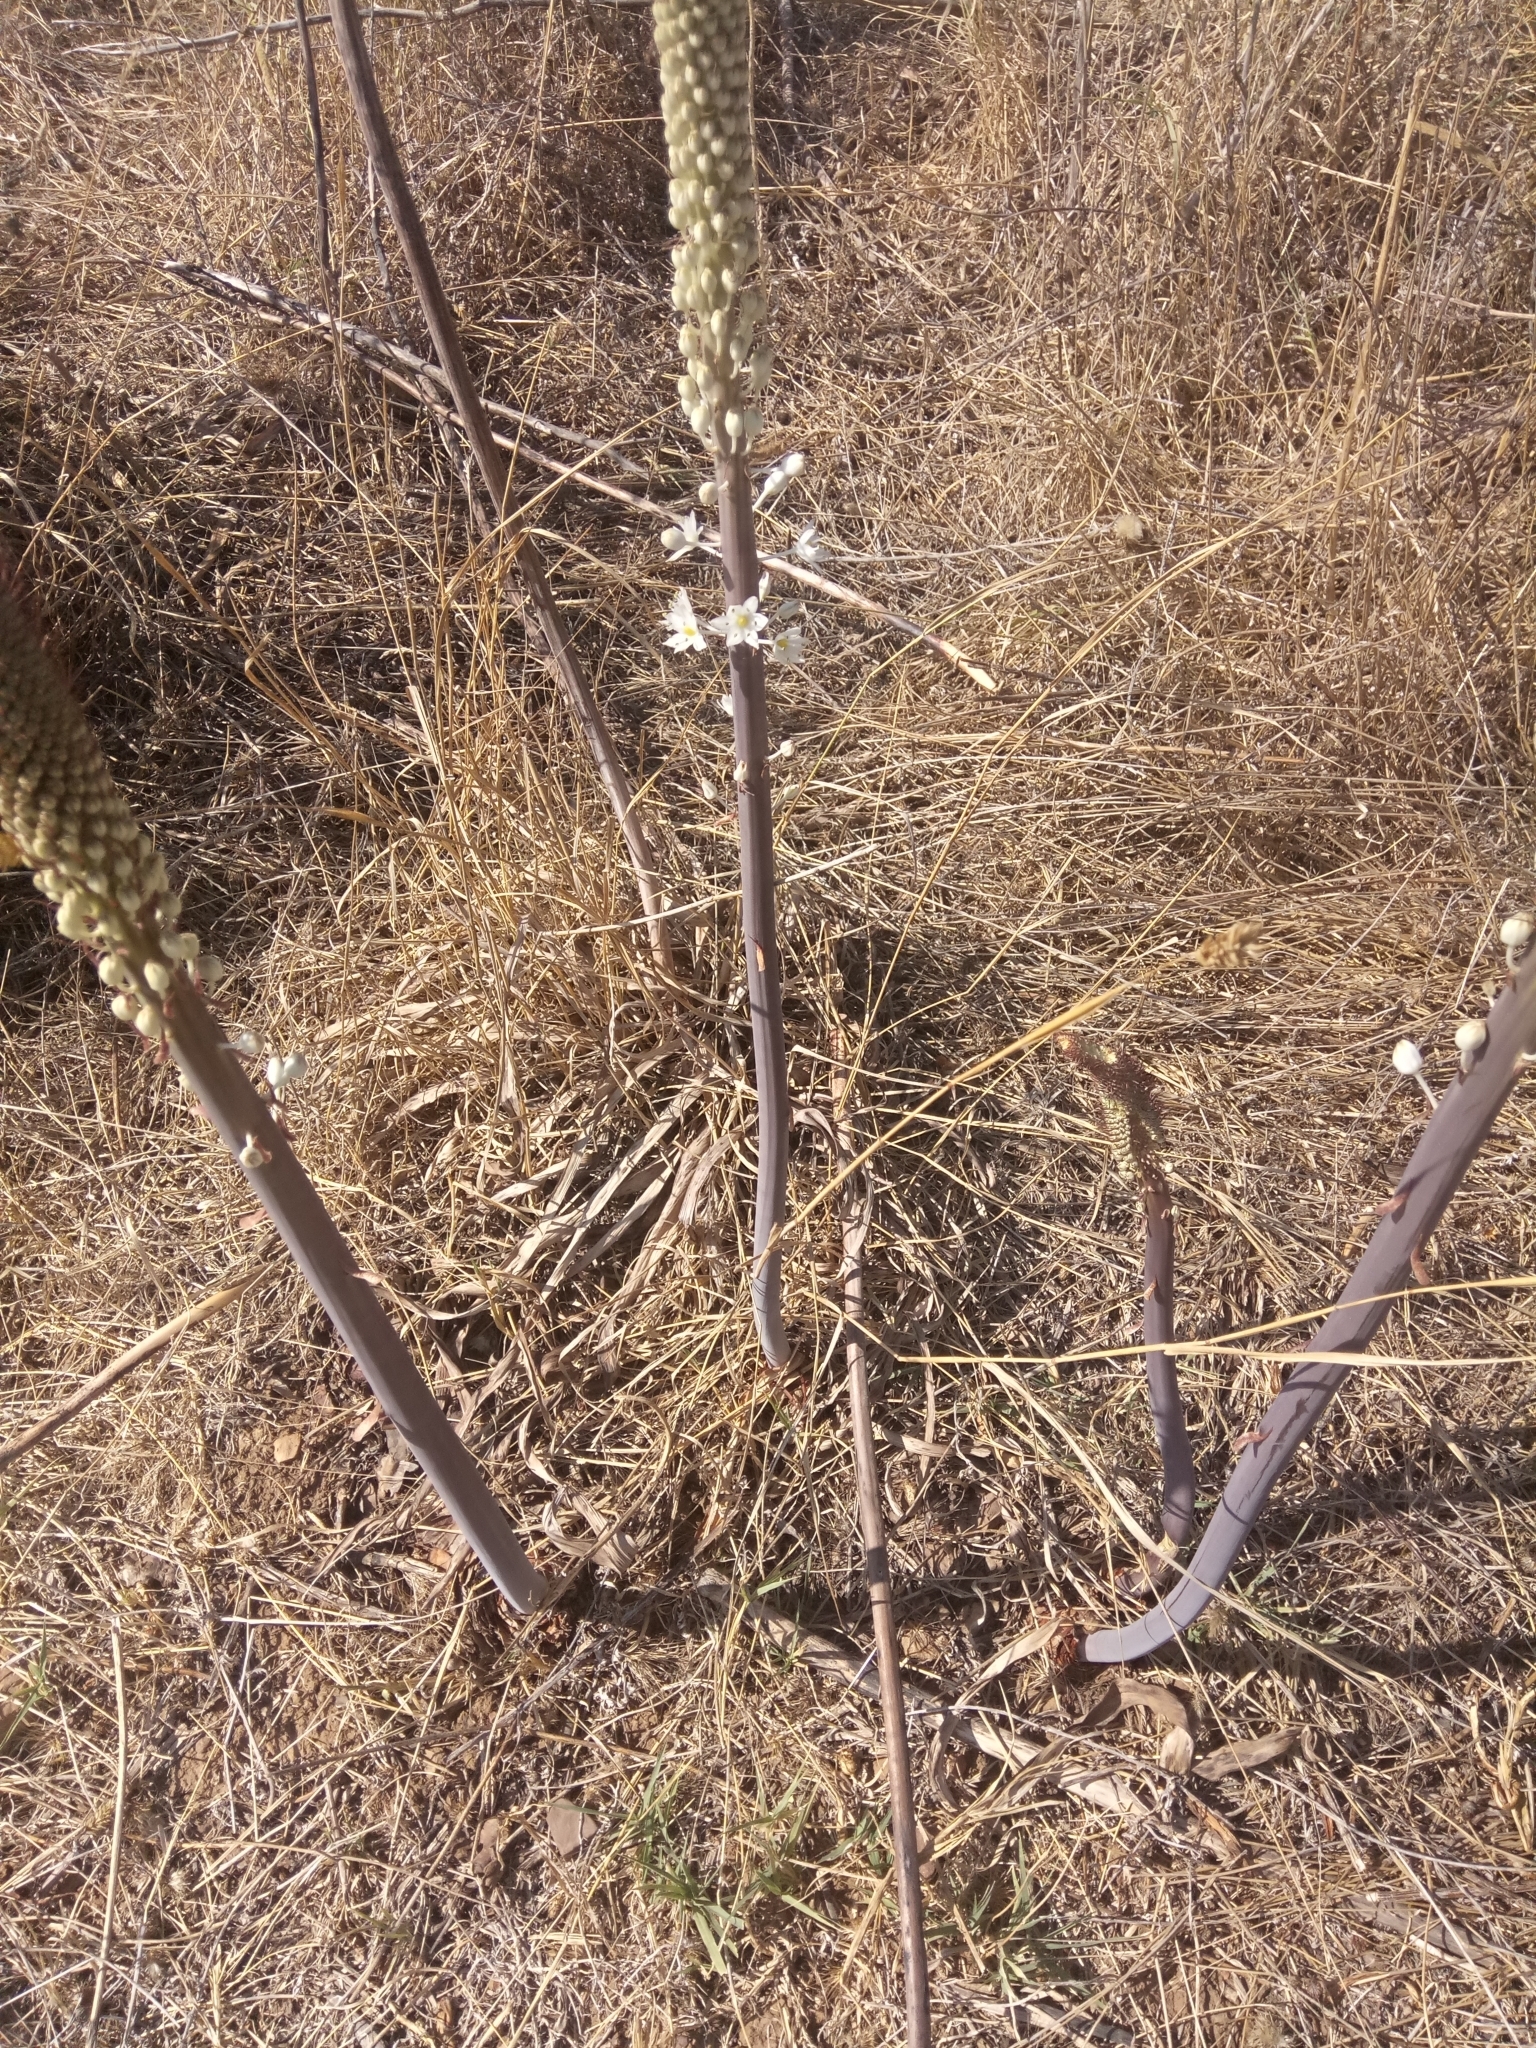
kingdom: Plantae
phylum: Tracheophyta
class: Liliopsida
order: Asparagales
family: Asparagaceae
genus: Drimia
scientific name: Drimia numidica
